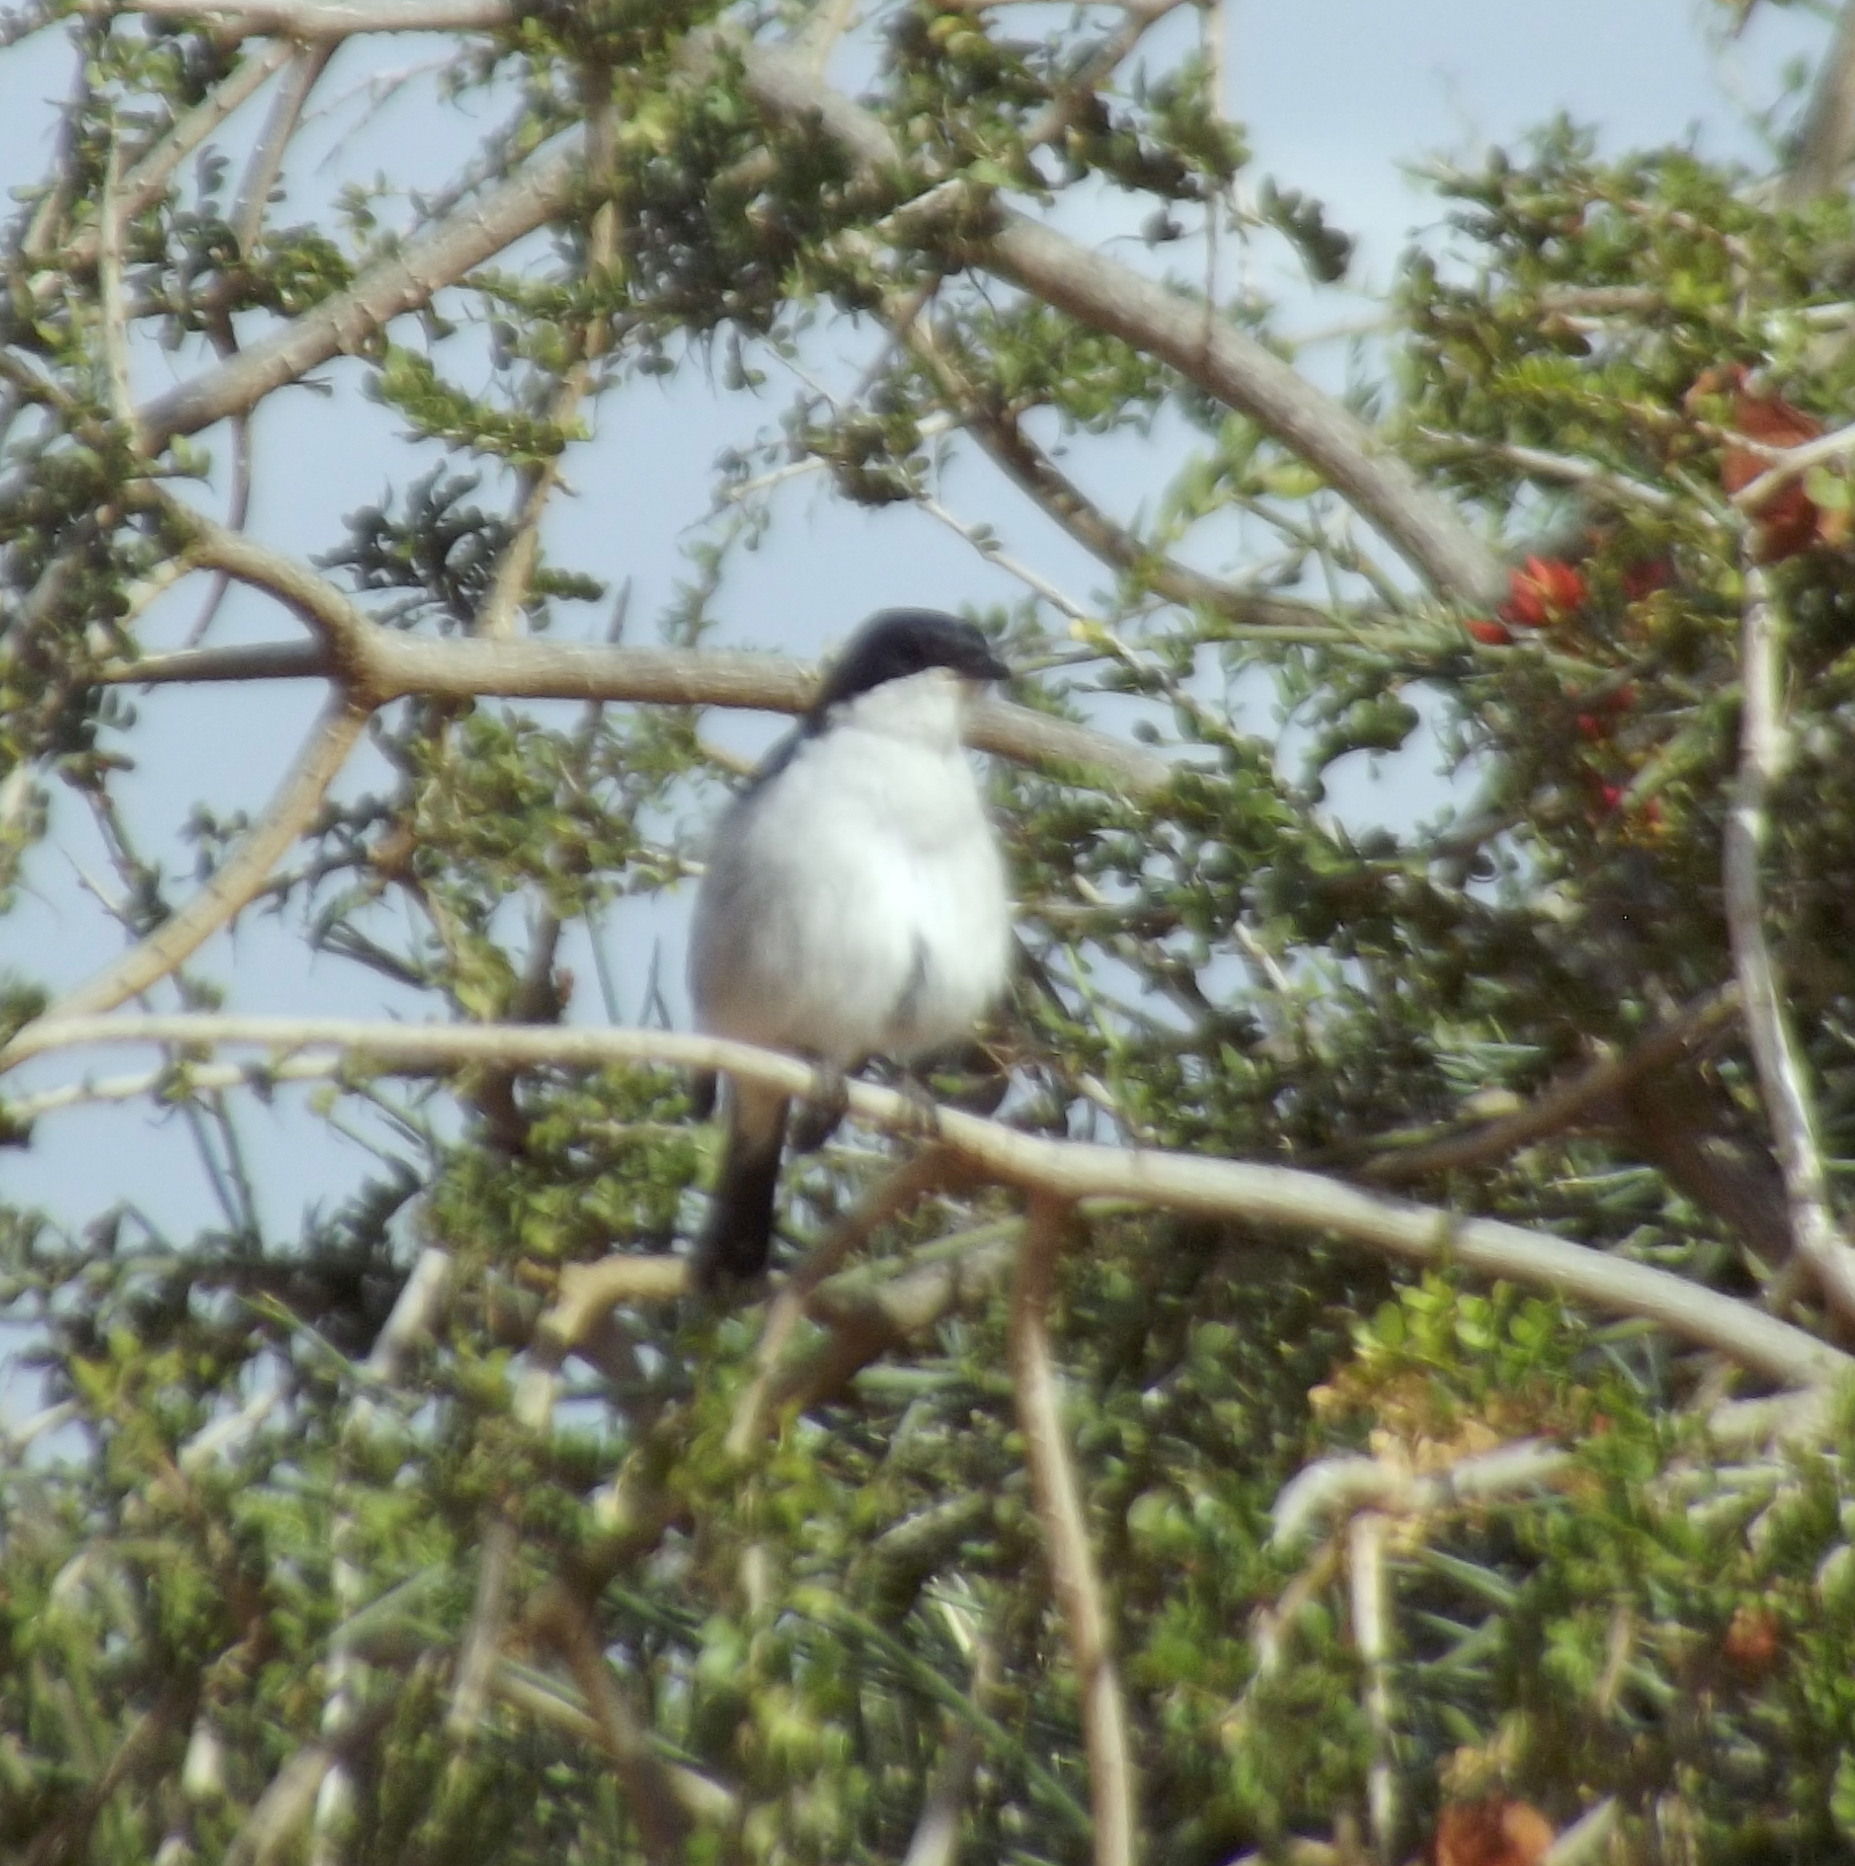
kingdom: Animalia
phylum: Chordata
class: Aves
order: Passeriformes
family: Muscicapidae
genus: Sigelus
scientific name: Sigelus silens
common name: Fiscal flycatcher
